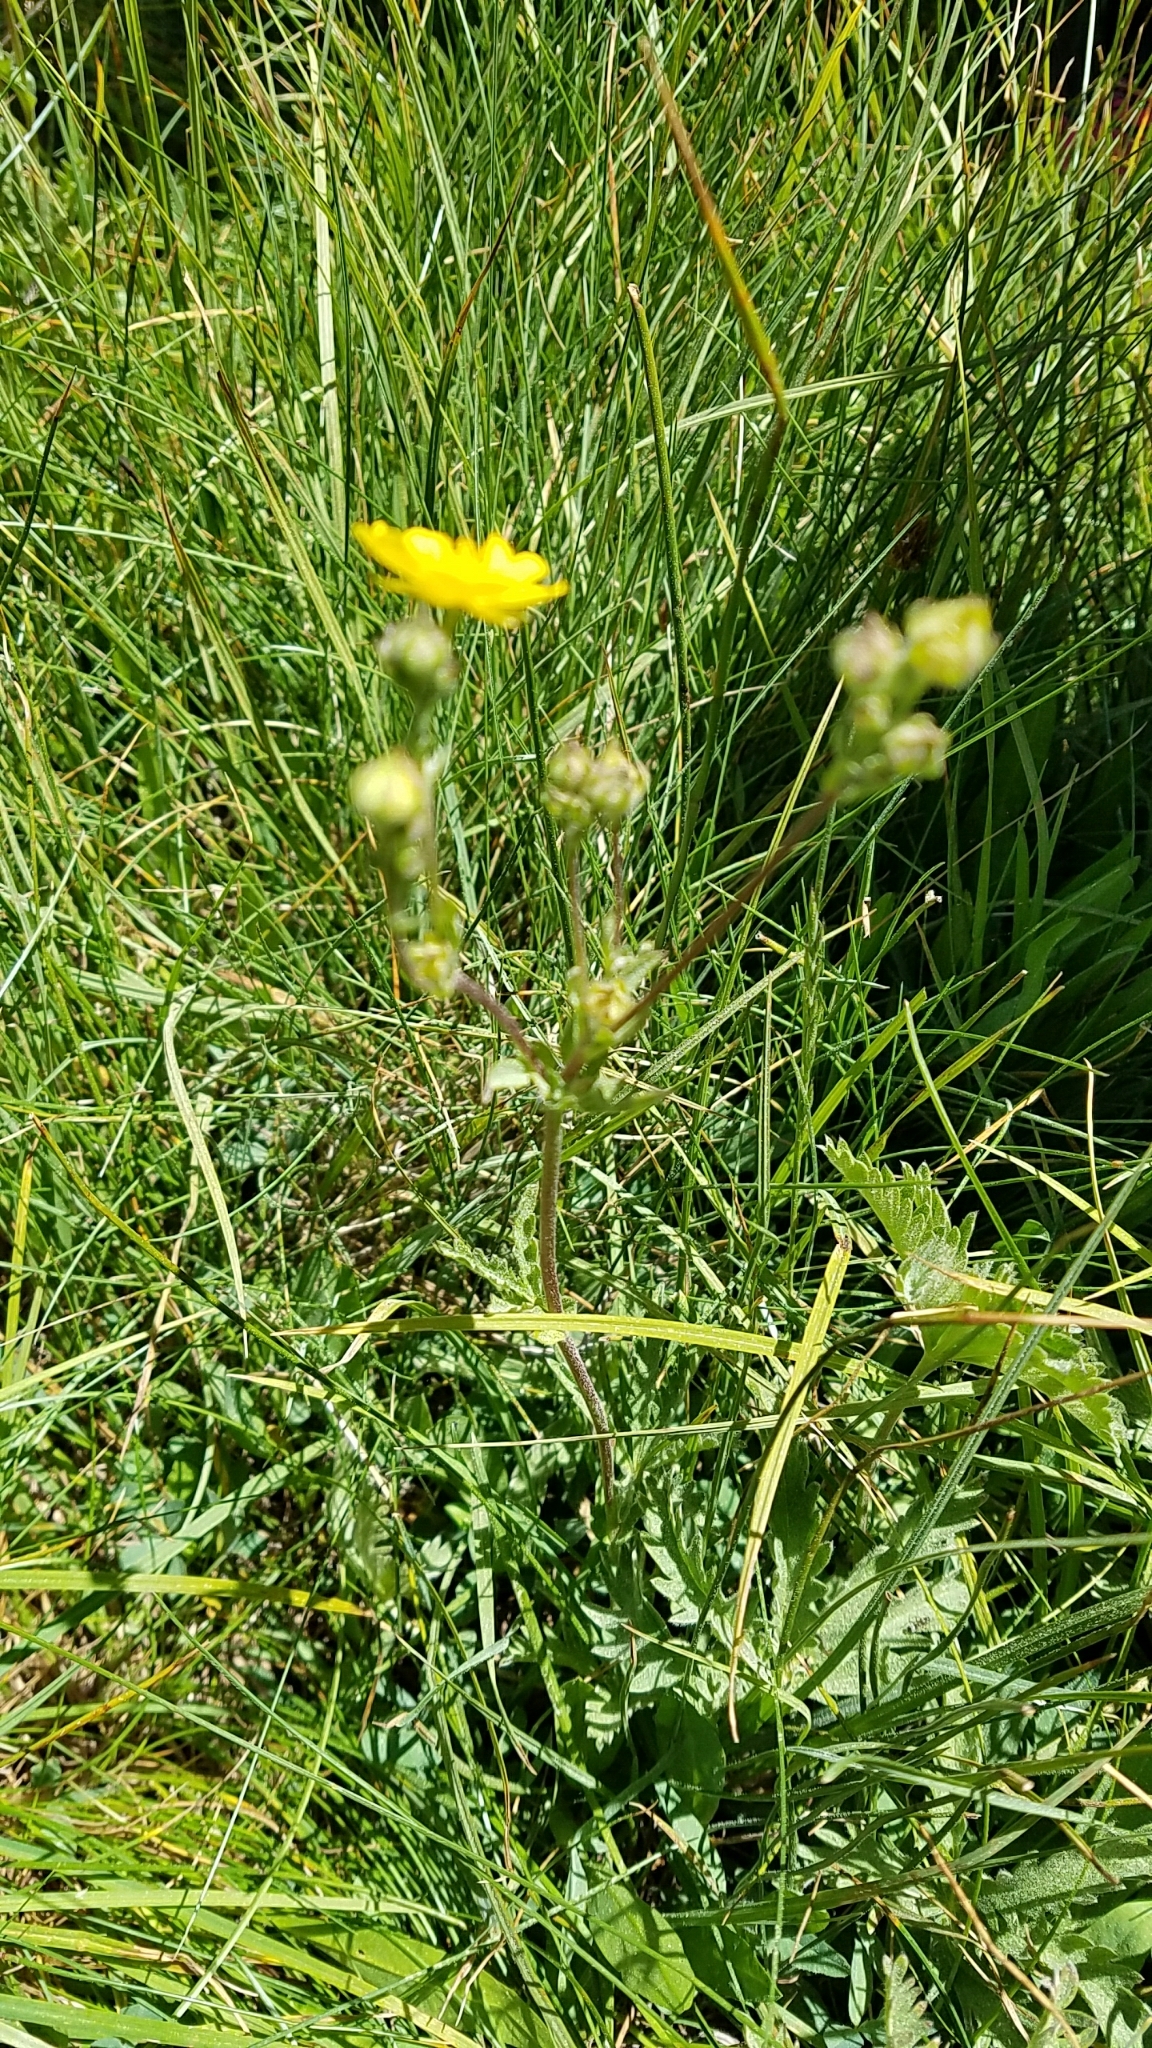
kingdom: Plantae
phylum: Tracheophyta
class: Magnoliopsida
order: Rosales
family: Rosaceae
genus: Potentilla
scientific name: Potentilla gracilis
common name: Graceful cinquefoil
